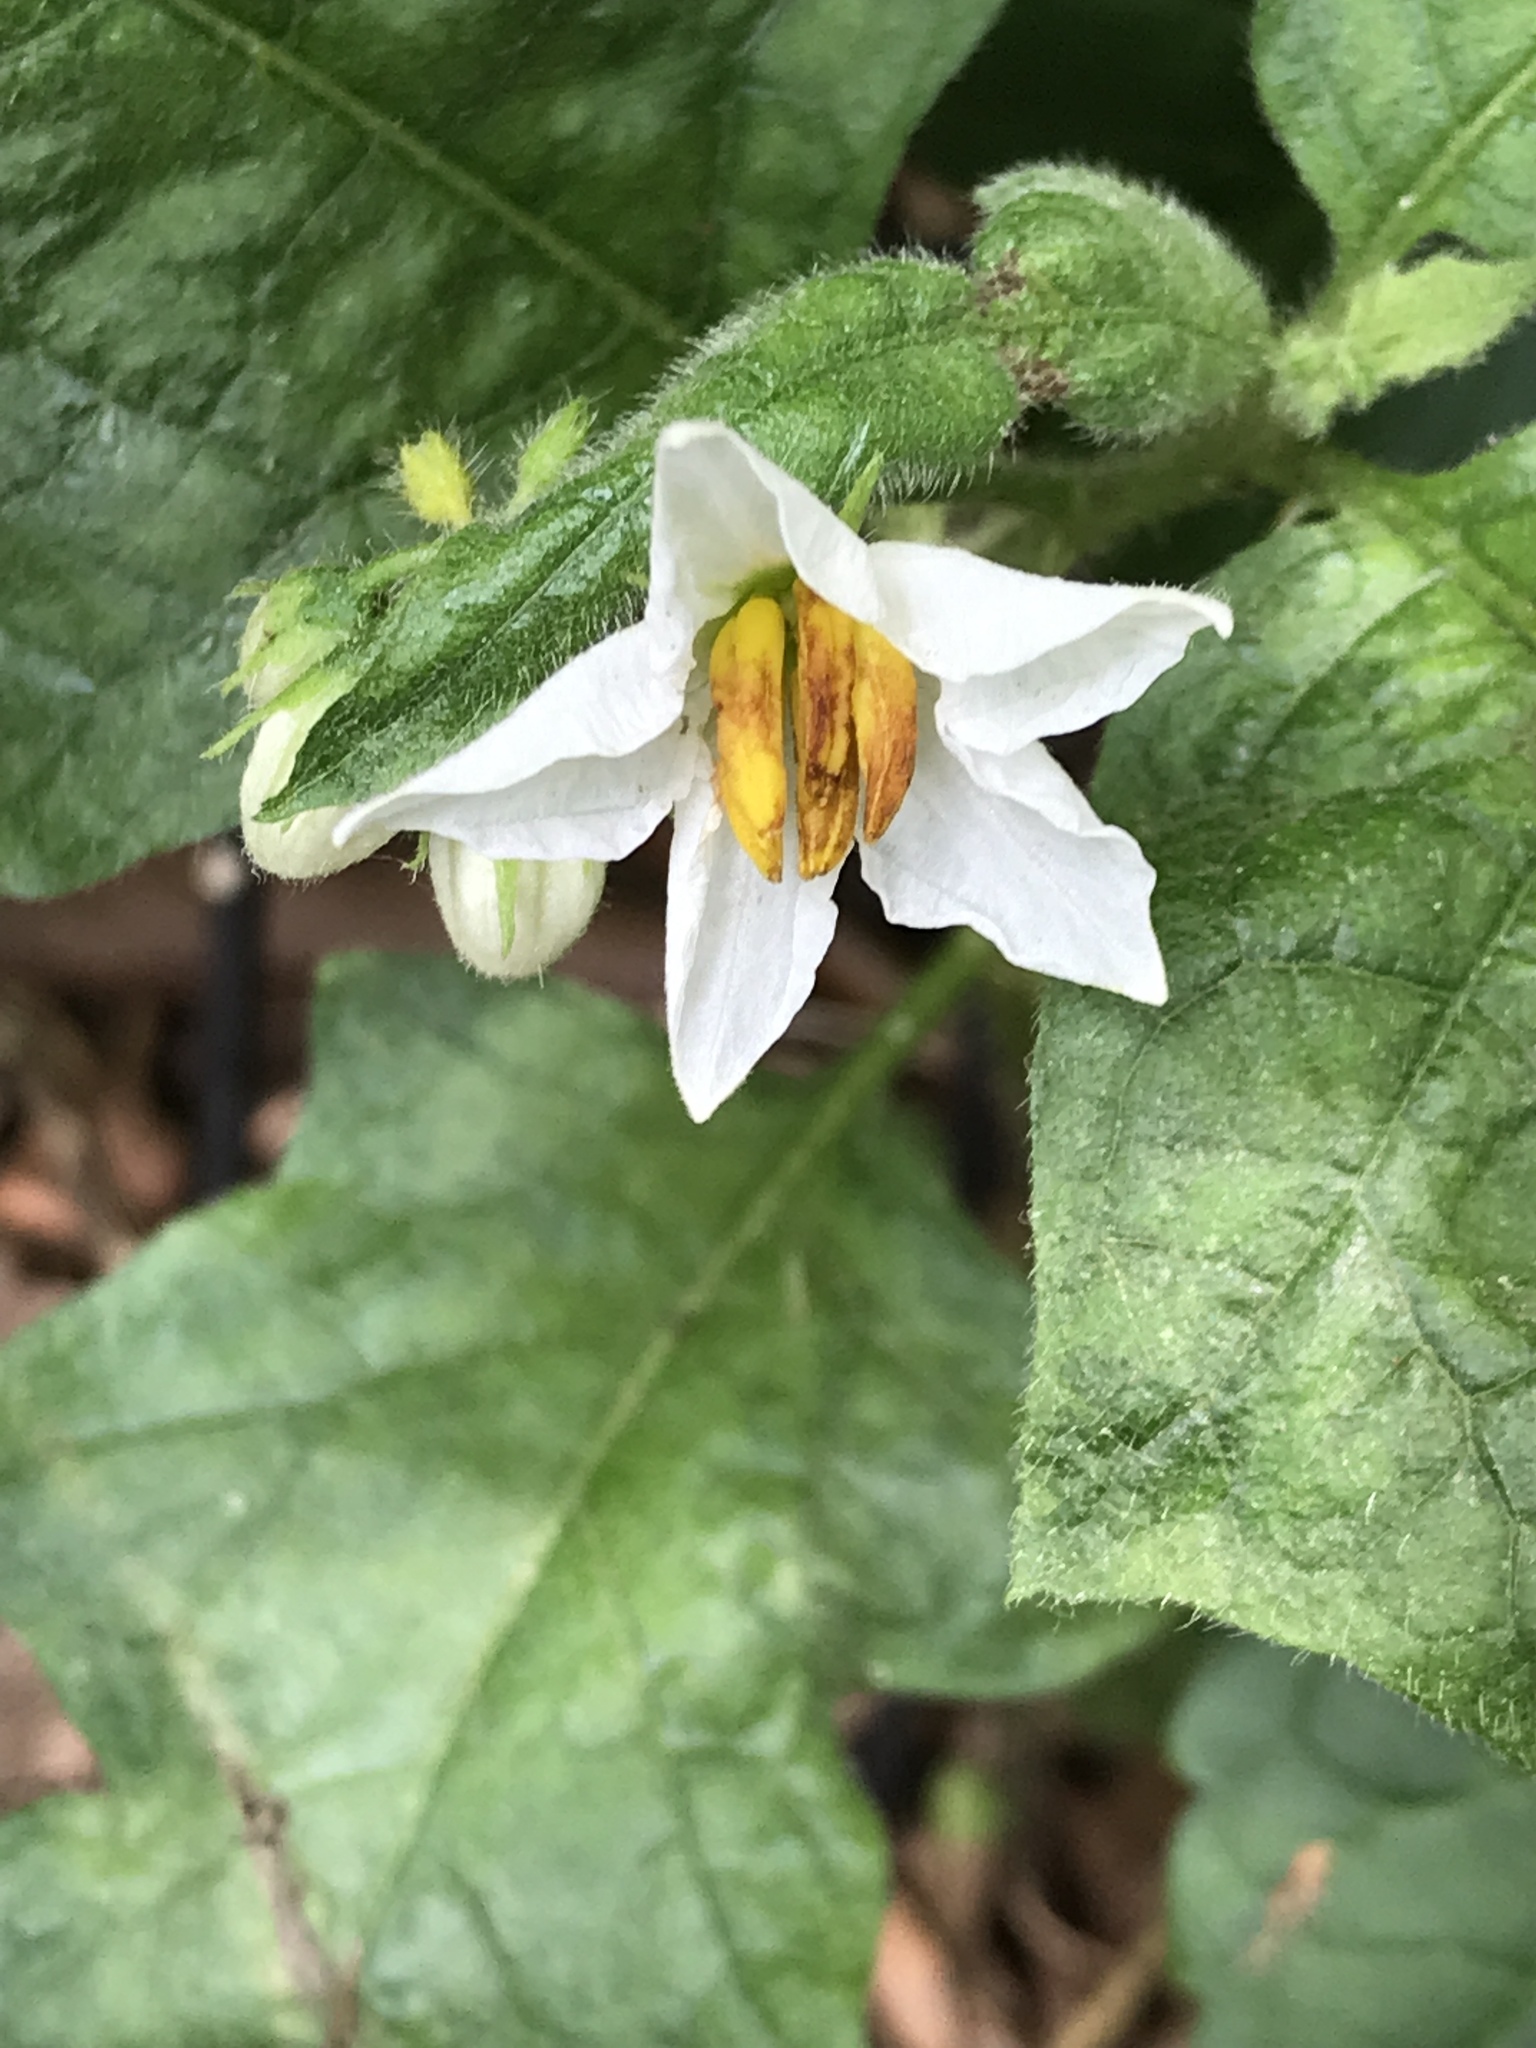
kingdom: Plantae
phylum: Tracheophyta
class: Magnoliopsida
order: Solanales
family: Solanaceae
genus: Solanum
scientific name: Solanum carolinense
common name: Horse-nettle
